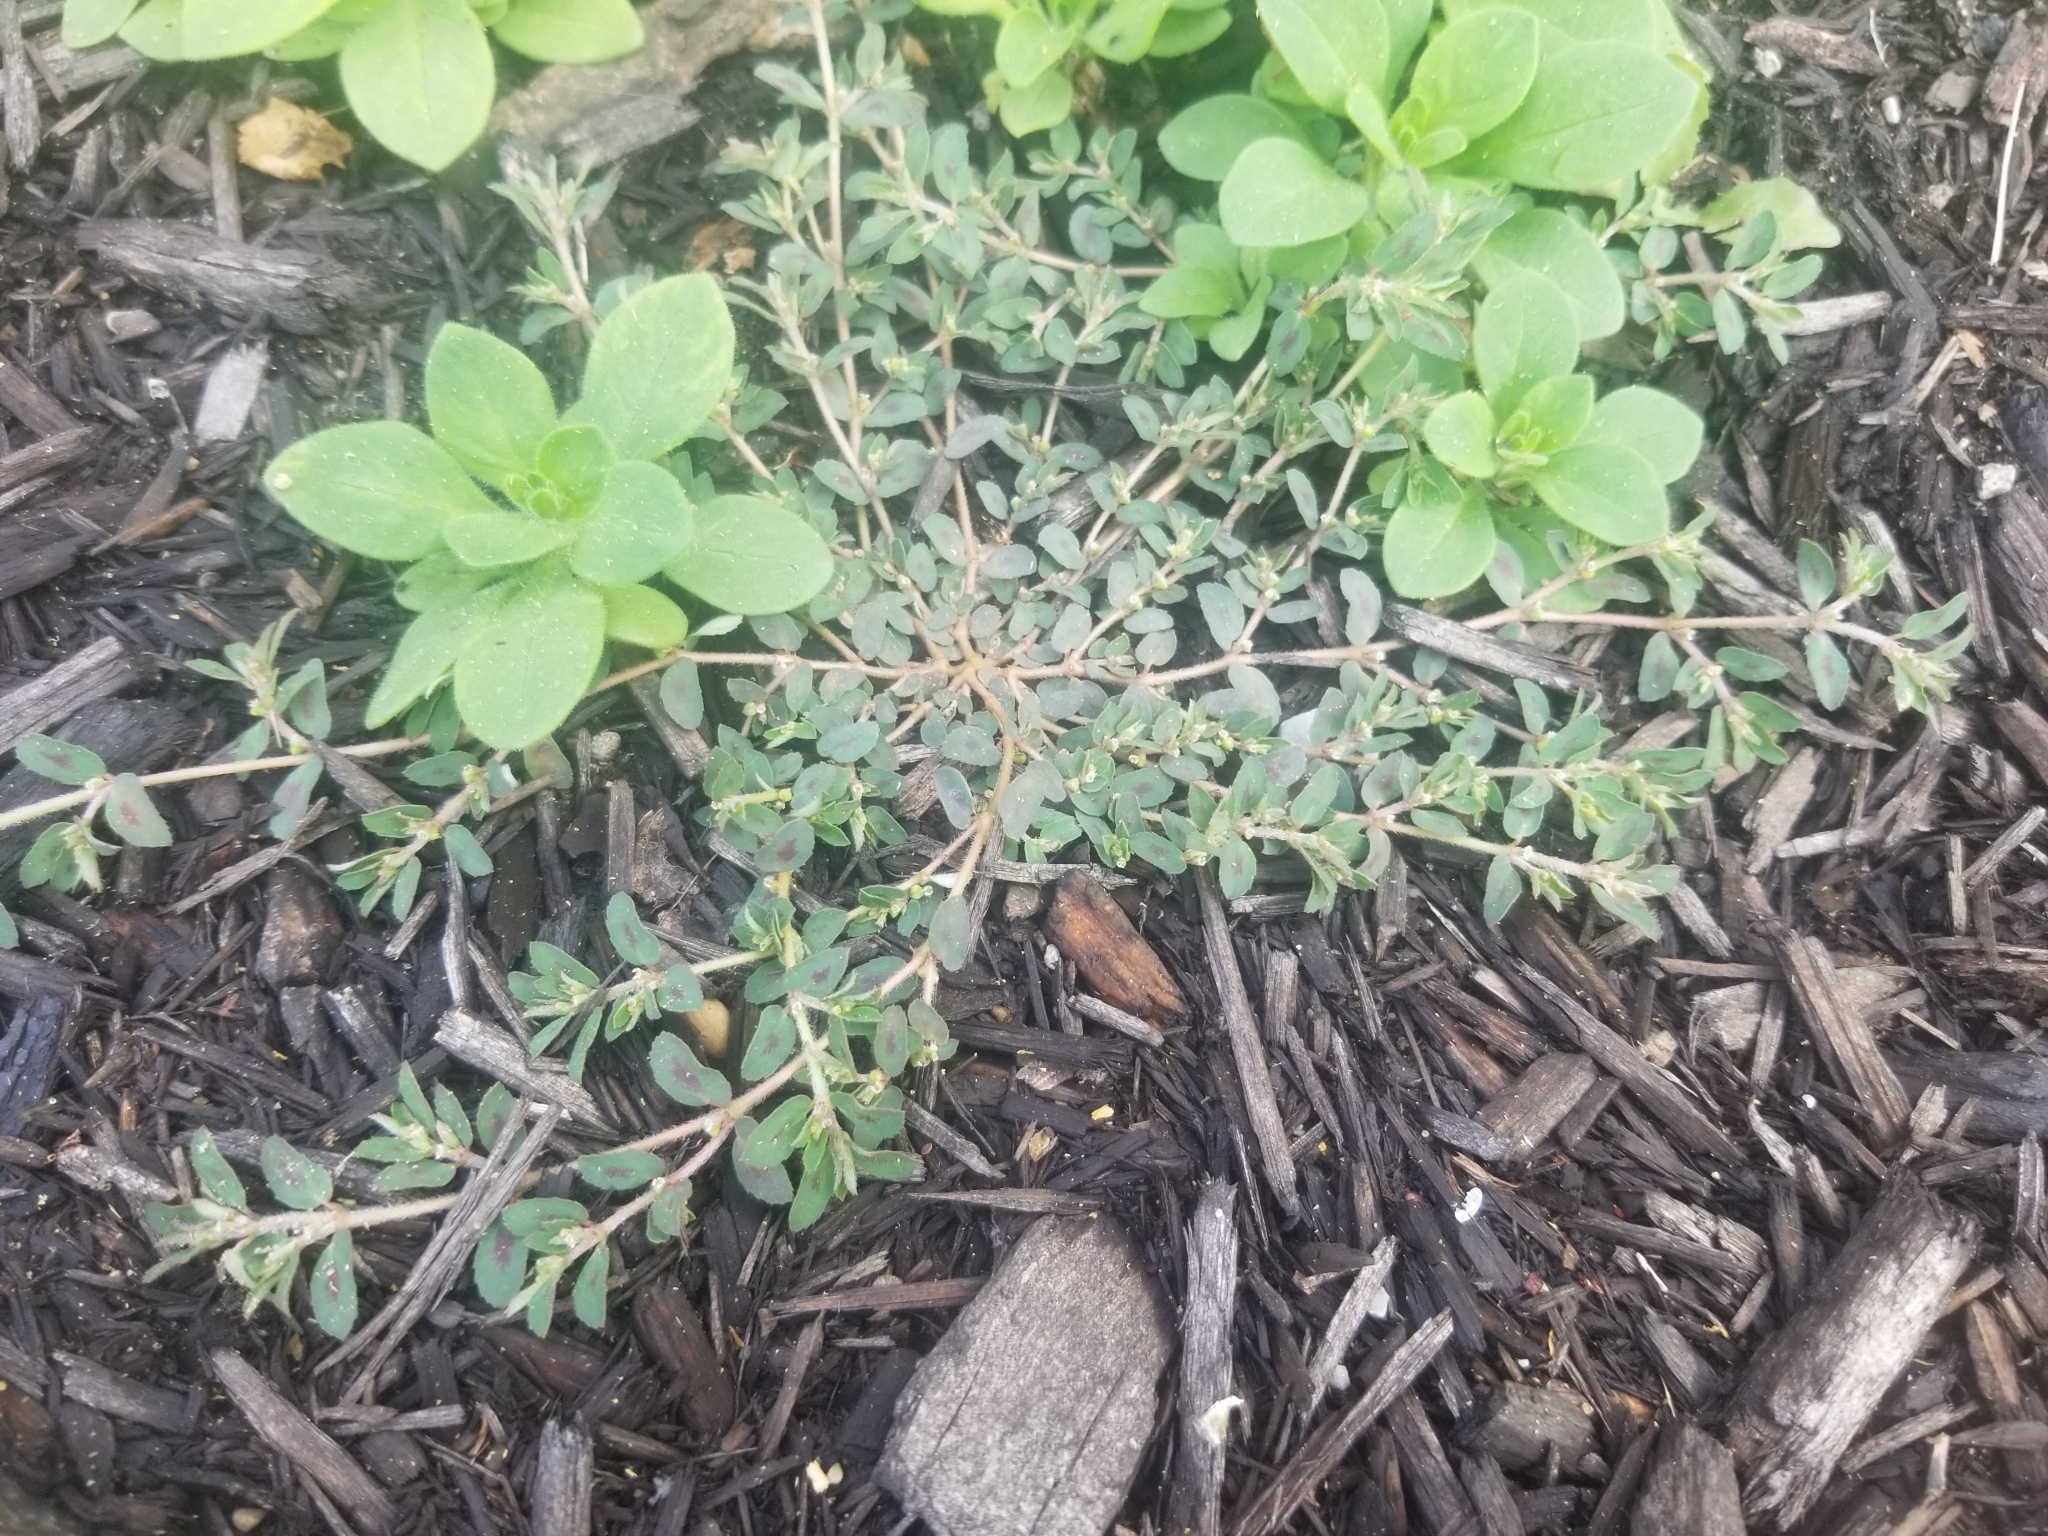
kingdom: Plantae
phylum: Tracheophyta
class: Magnoliopsida
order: Malpighiales
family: Euphorbiaceae
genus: Euphorbia
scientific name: Euphorbia maculata
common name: Spotted spurge
